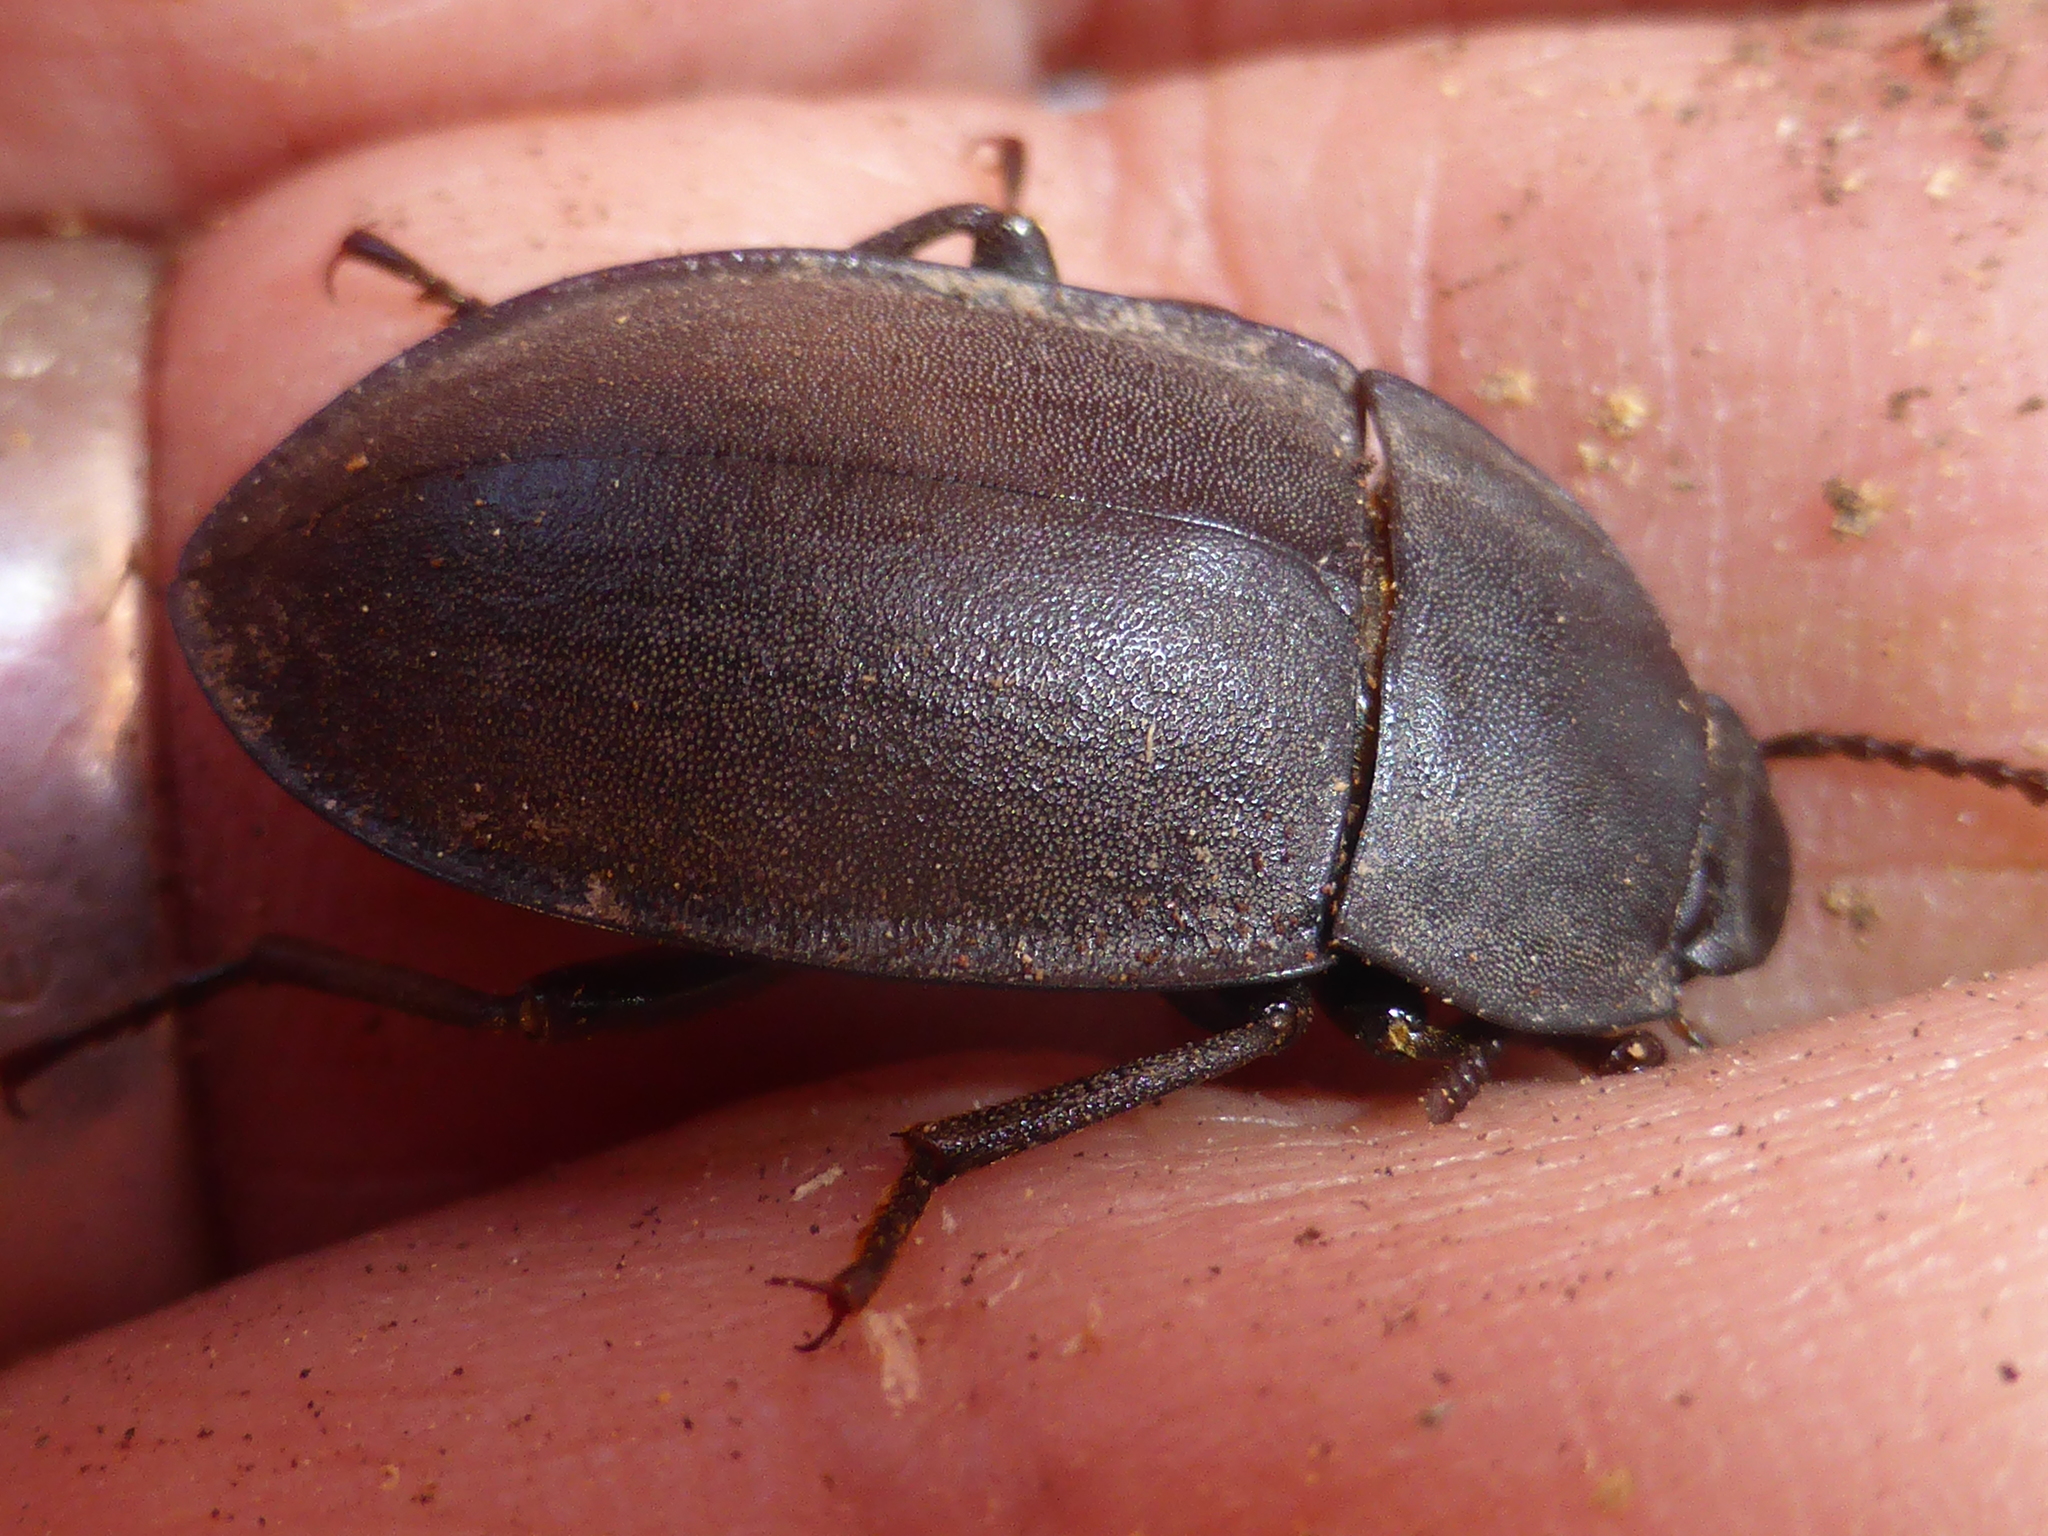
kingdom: Animalia
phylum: Arthropoda
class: Insecta
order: Coleoptera
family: Tenebrionidae
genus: Mimopeus
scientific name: Mimopeus
